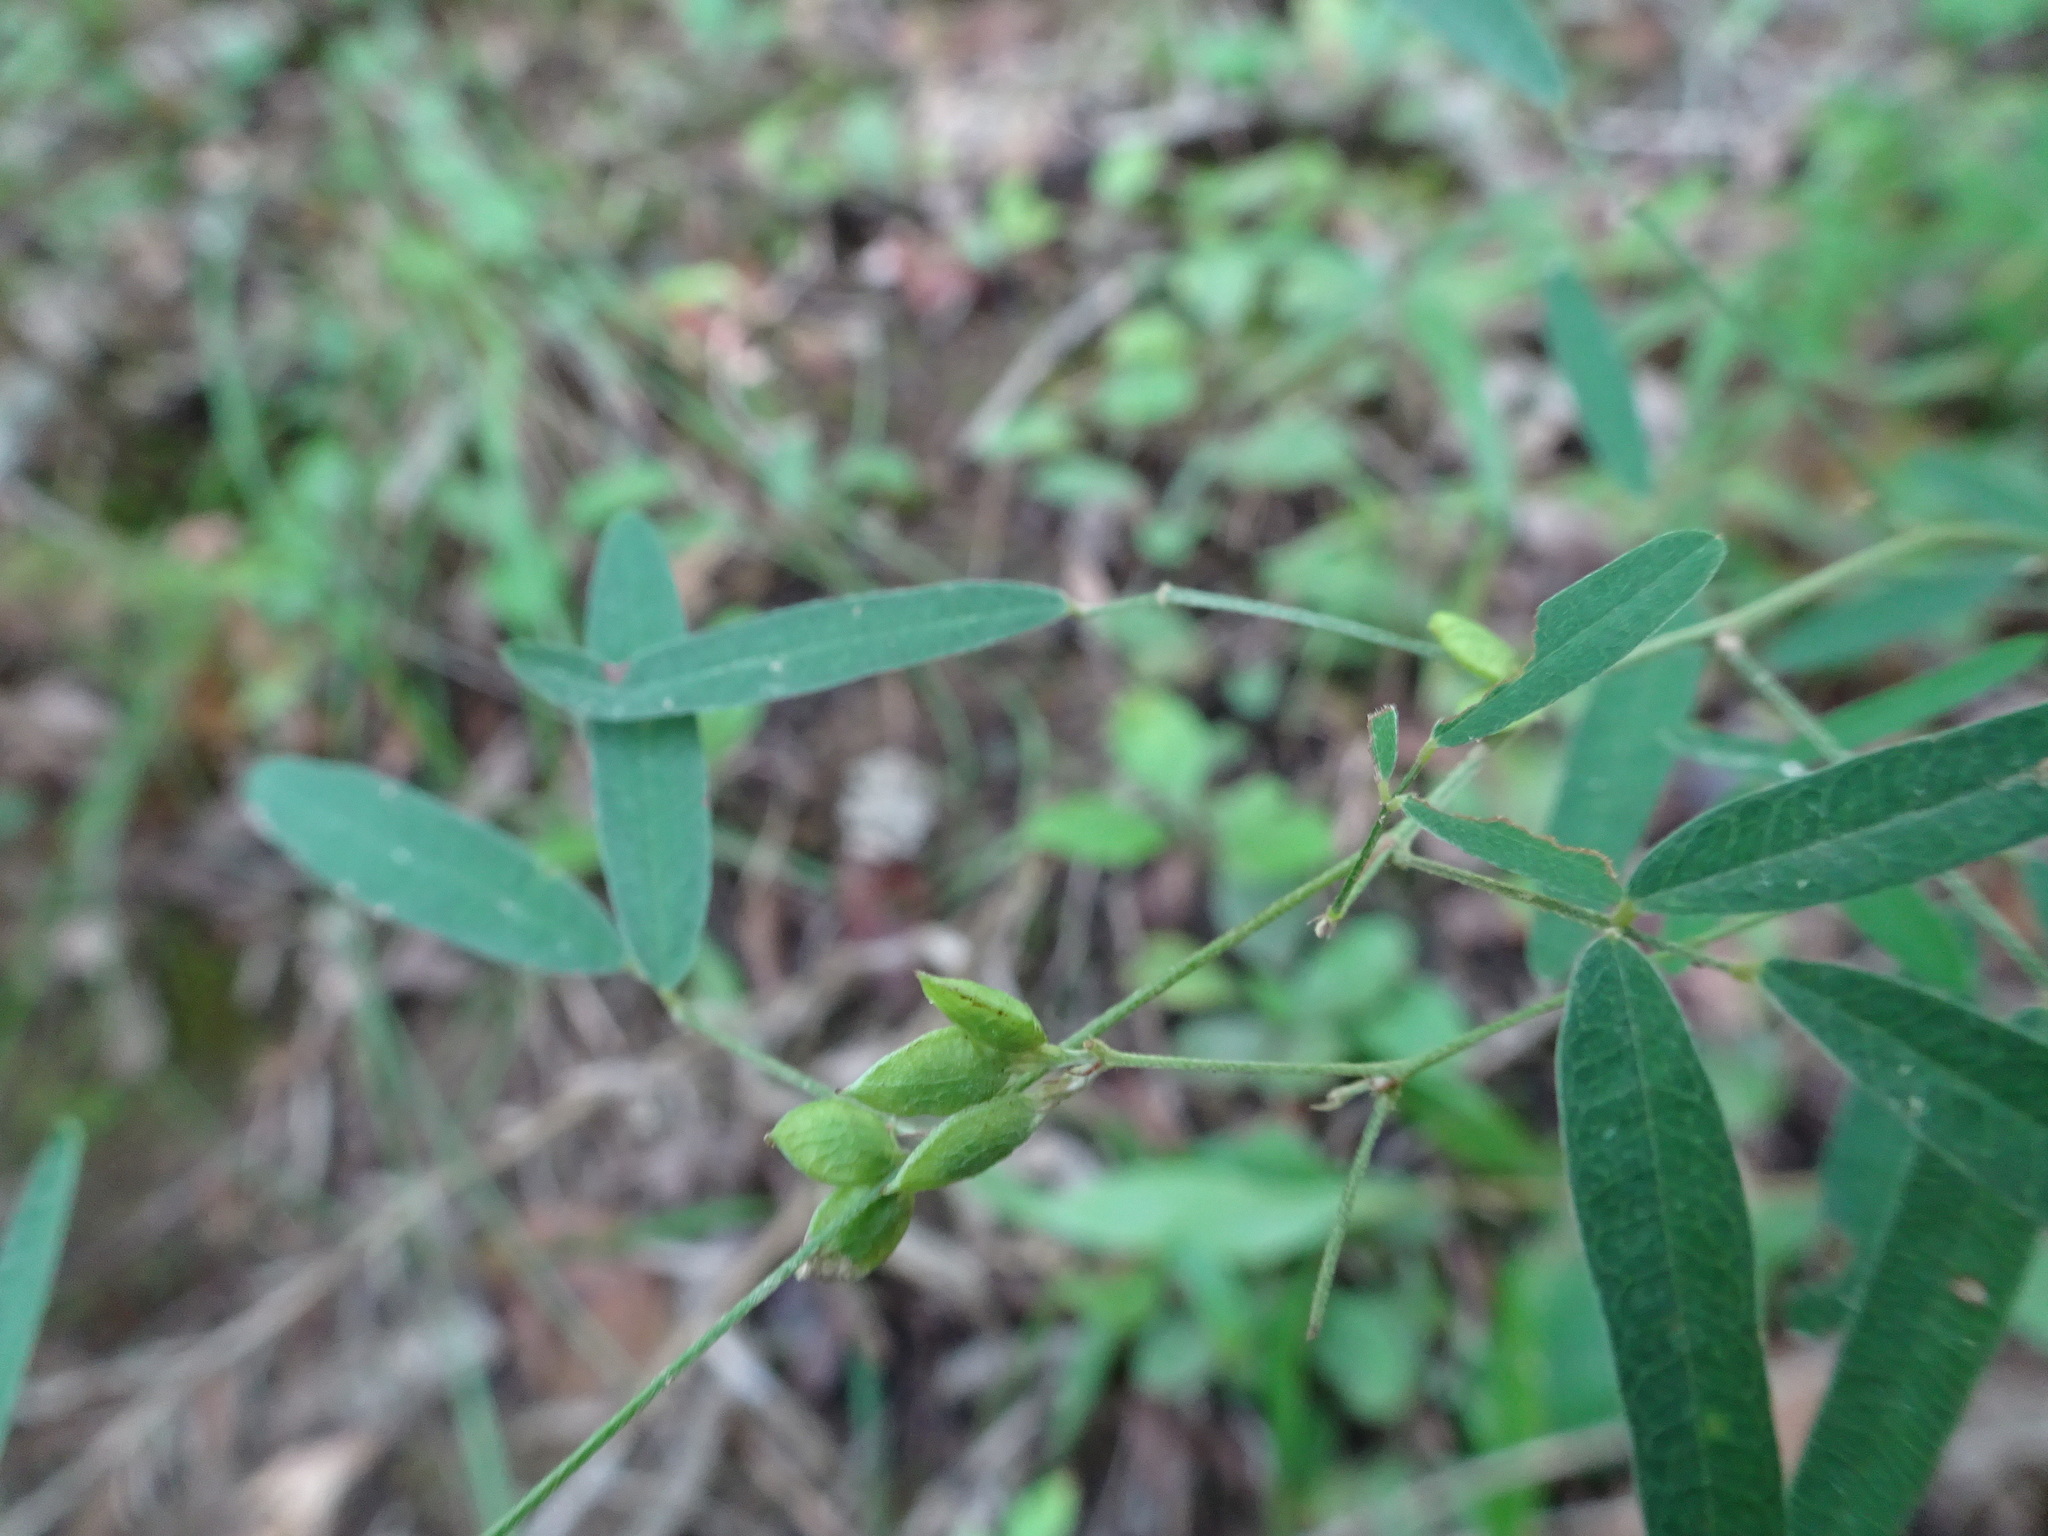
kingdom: Plantae
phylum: Tracheophyta
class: Magnoliopsida
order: Fabales
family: Fabaceae
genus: Lespedeza
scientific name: Lespedeza virginica
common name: Slender bush-clover
